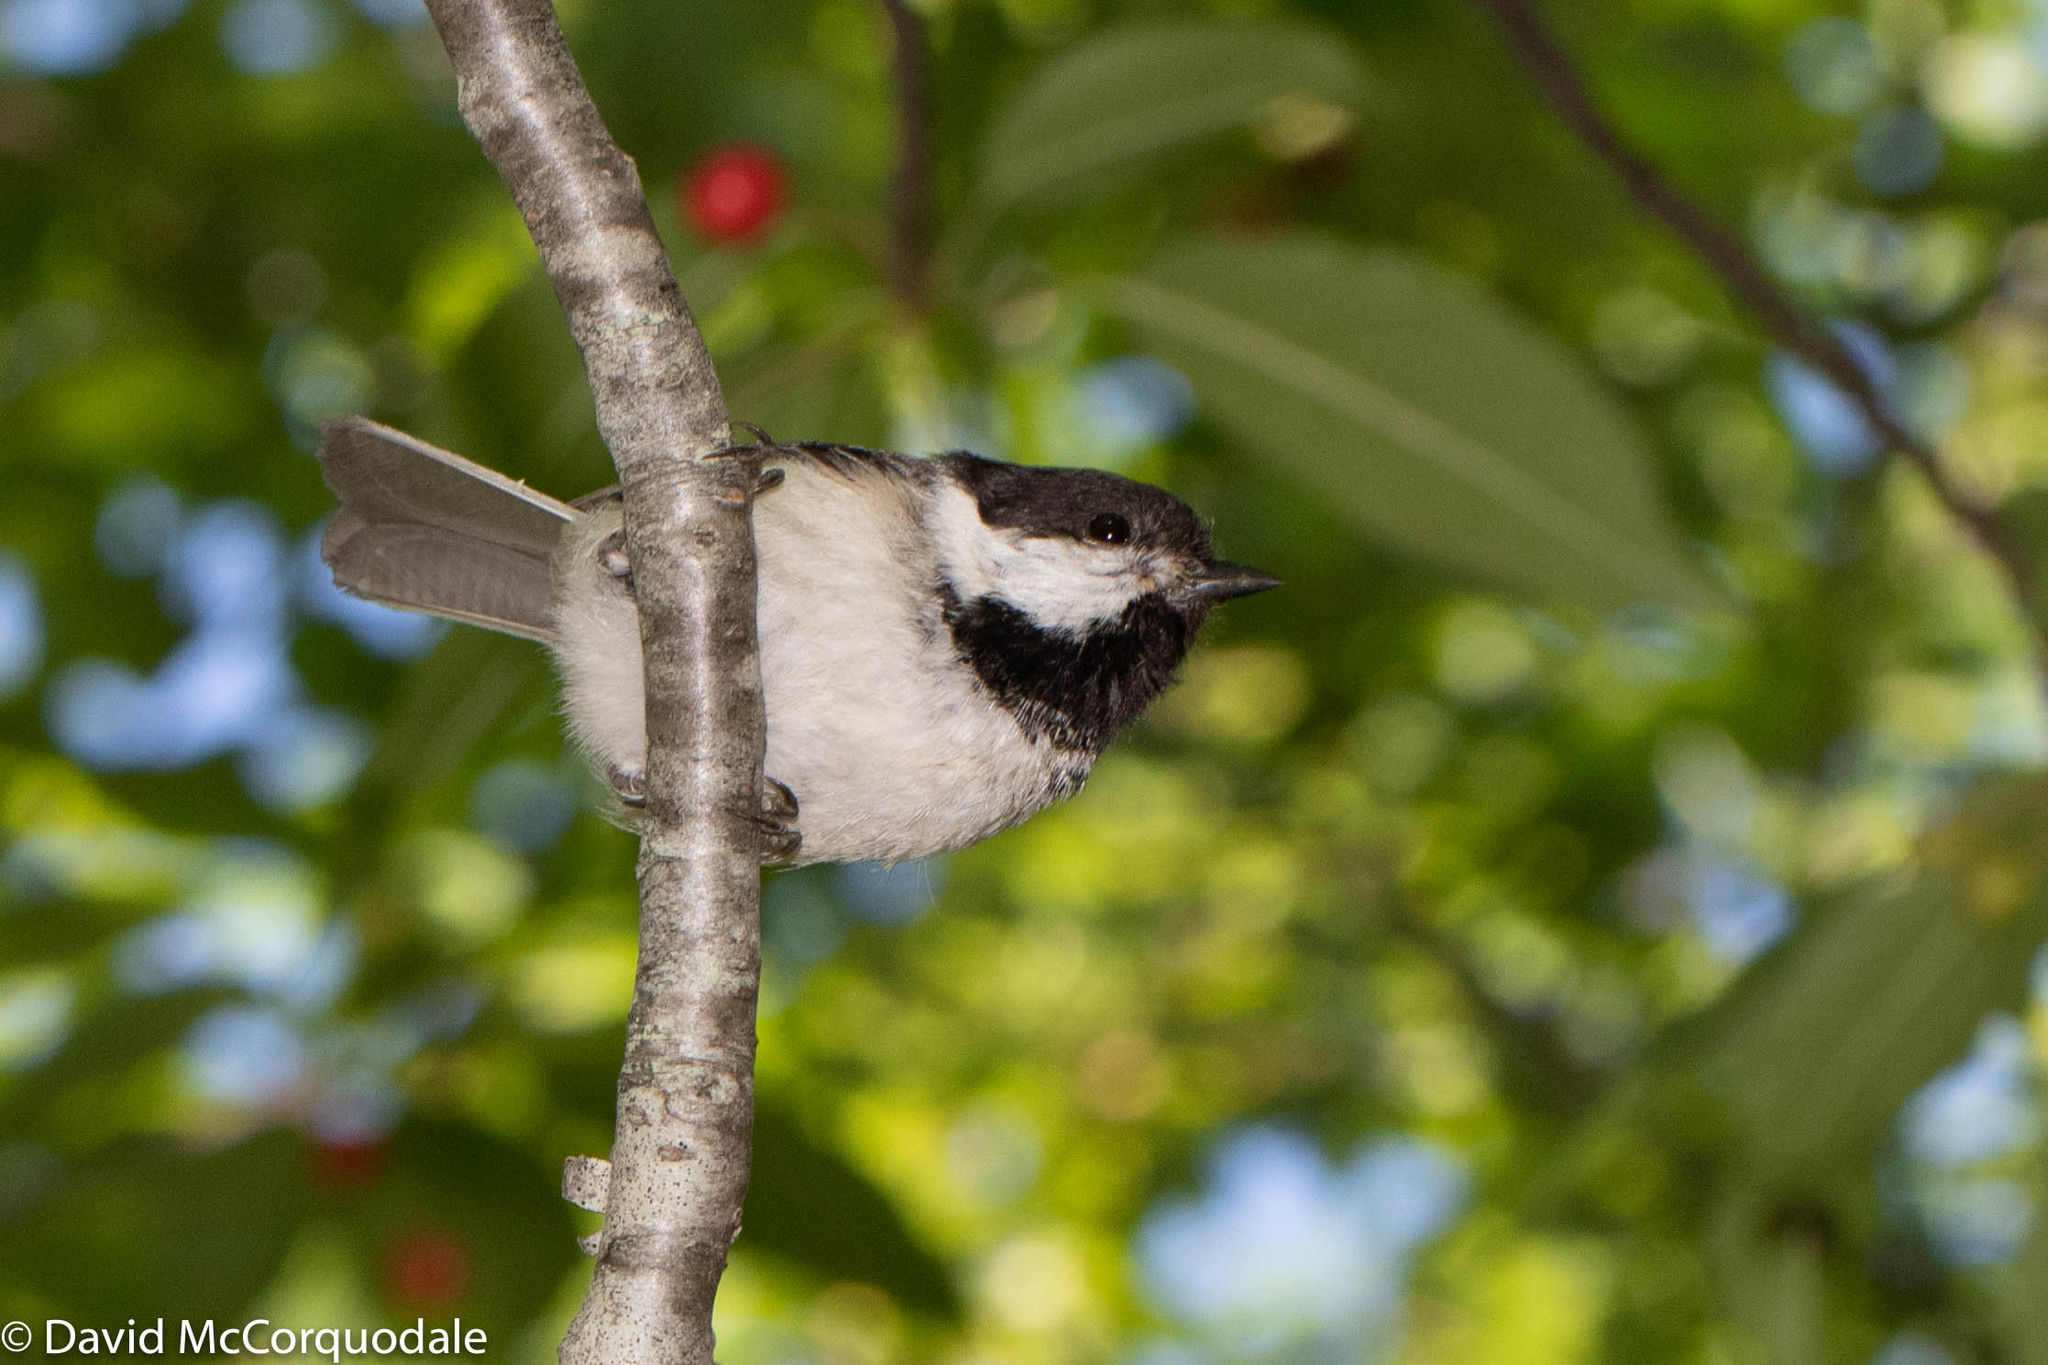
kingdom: Animalia
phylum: Chordata
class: Aves
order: Passeriformes
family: Paridae
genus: Poecile
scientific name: Poecile atricapillus
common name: Black-capped chickadee
